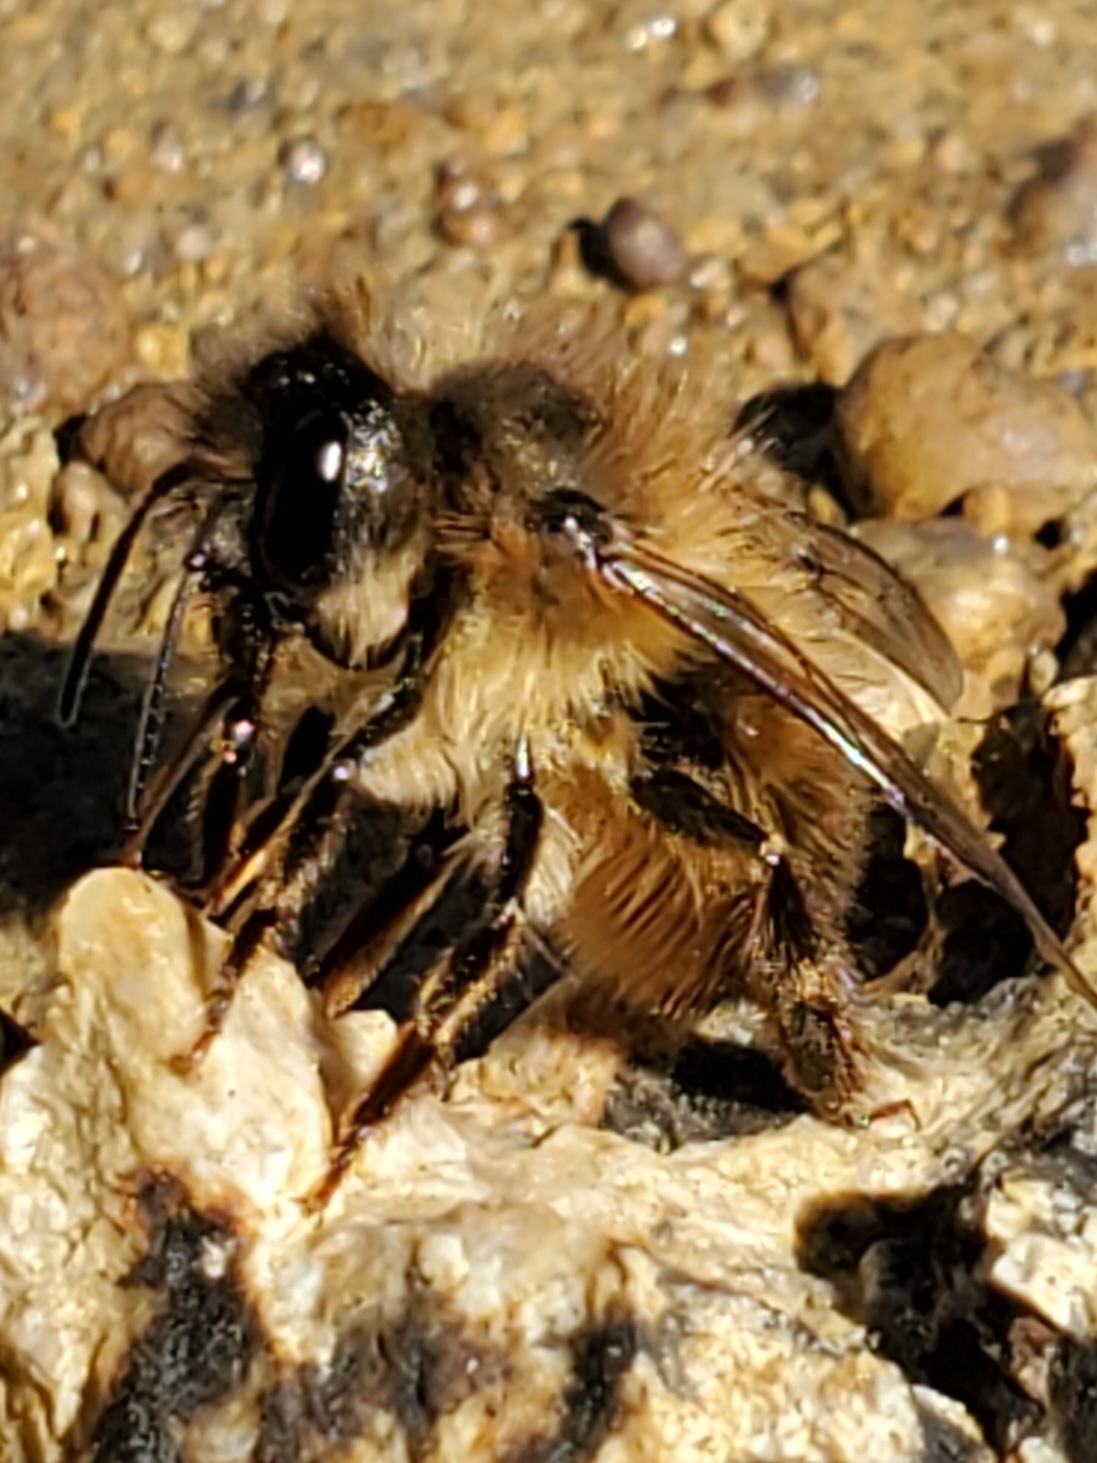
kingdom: Animalia
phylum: Arthropoda
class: Insecta
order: Hymenoptera
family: Megachilidae
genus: Osmia
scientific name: Osmia taurus
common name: Taurus mason bee
